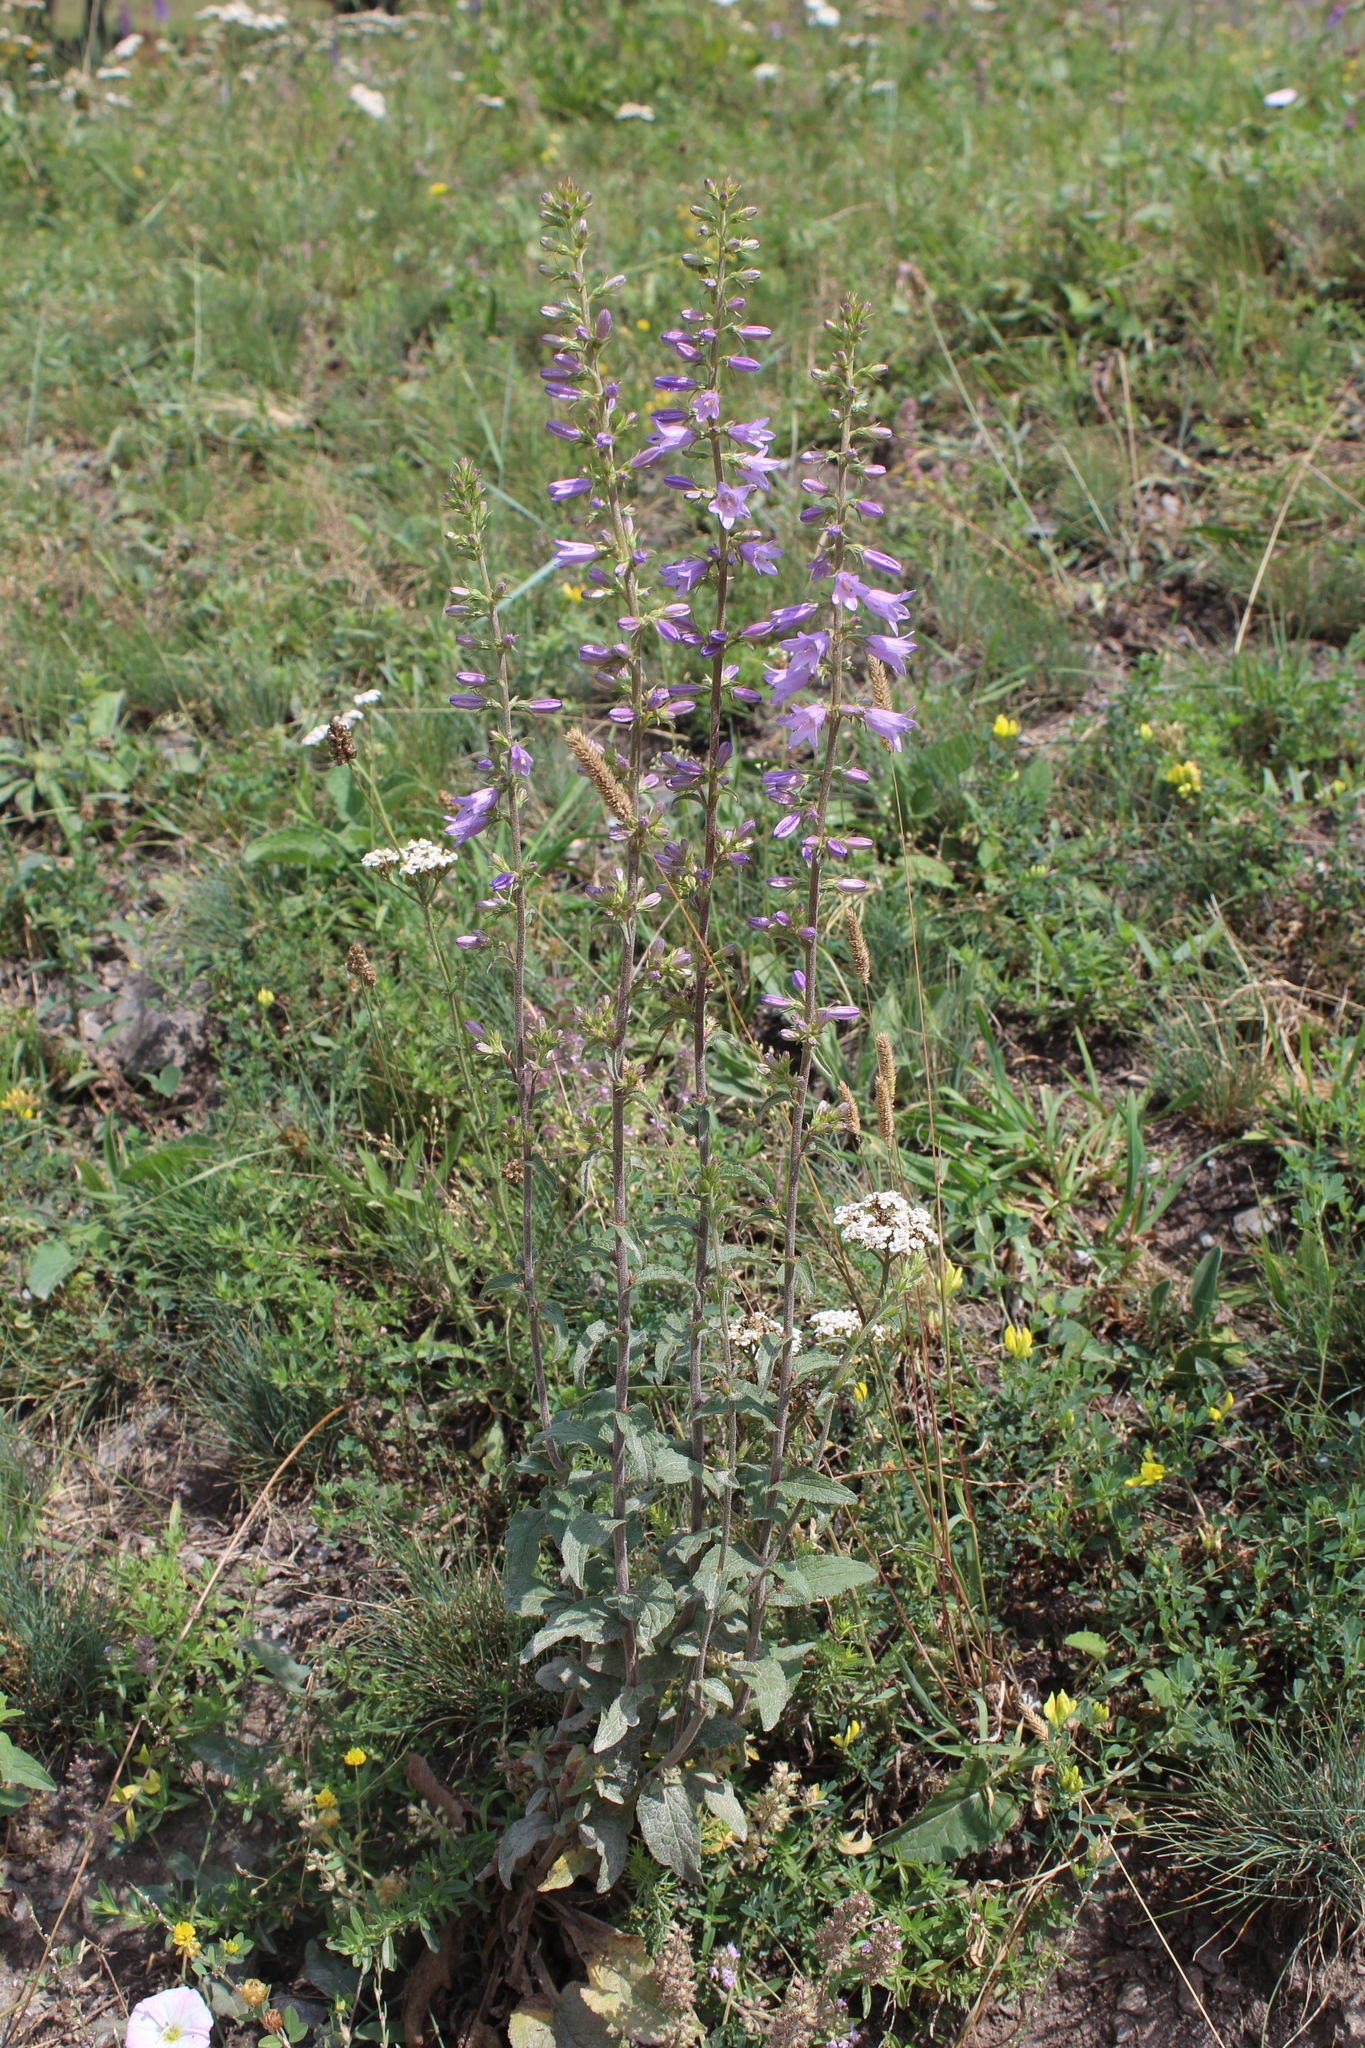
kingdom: Plantae
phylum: Tracheophyta
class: Magnoliopsida
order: Asterales
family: Campanulaceae
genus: Campanula
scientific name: Campanula bononiensis
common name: Pale bellflower
